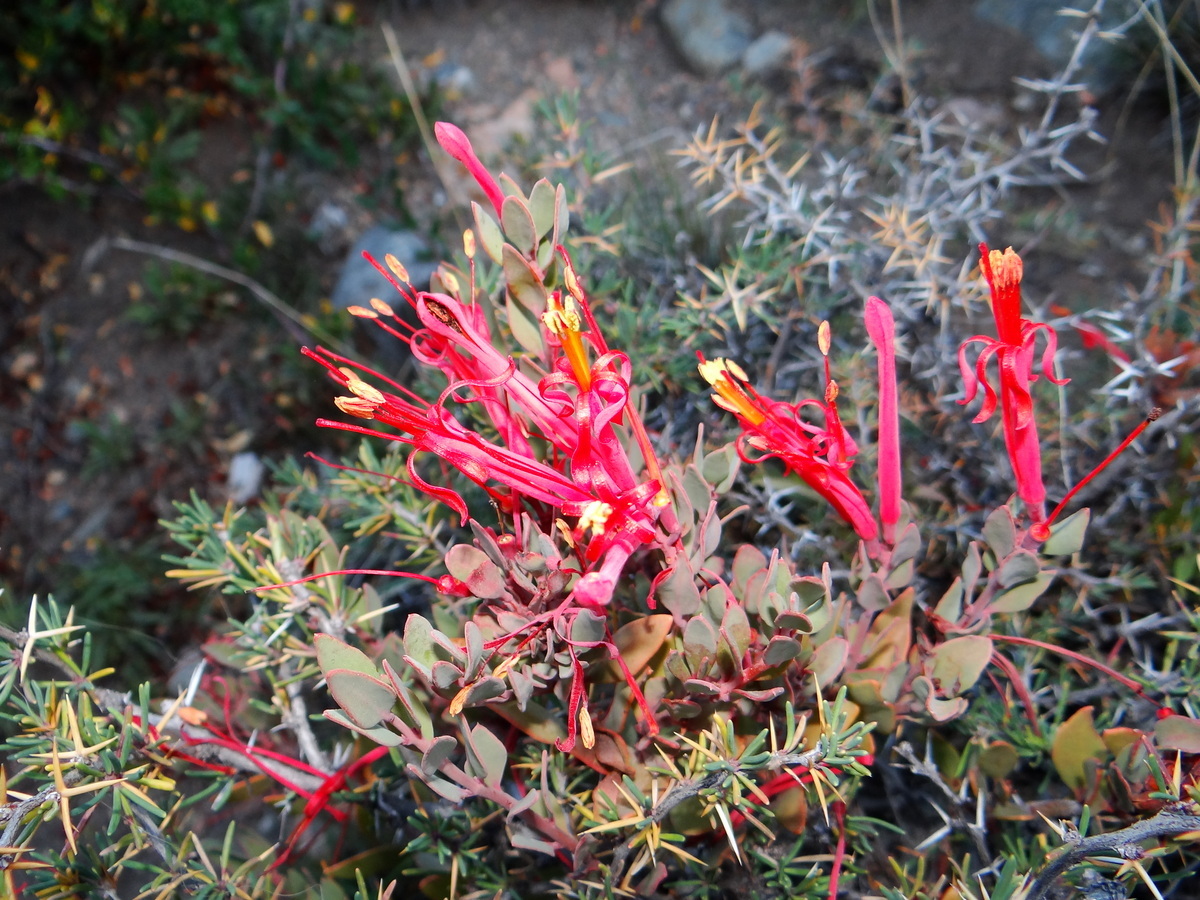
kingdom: Plantae
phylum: Tracheophyta
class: Magnoliopsida
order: Santalales
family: Loranthaceae
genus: Tristerix
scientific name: Tristerix verticillatus
